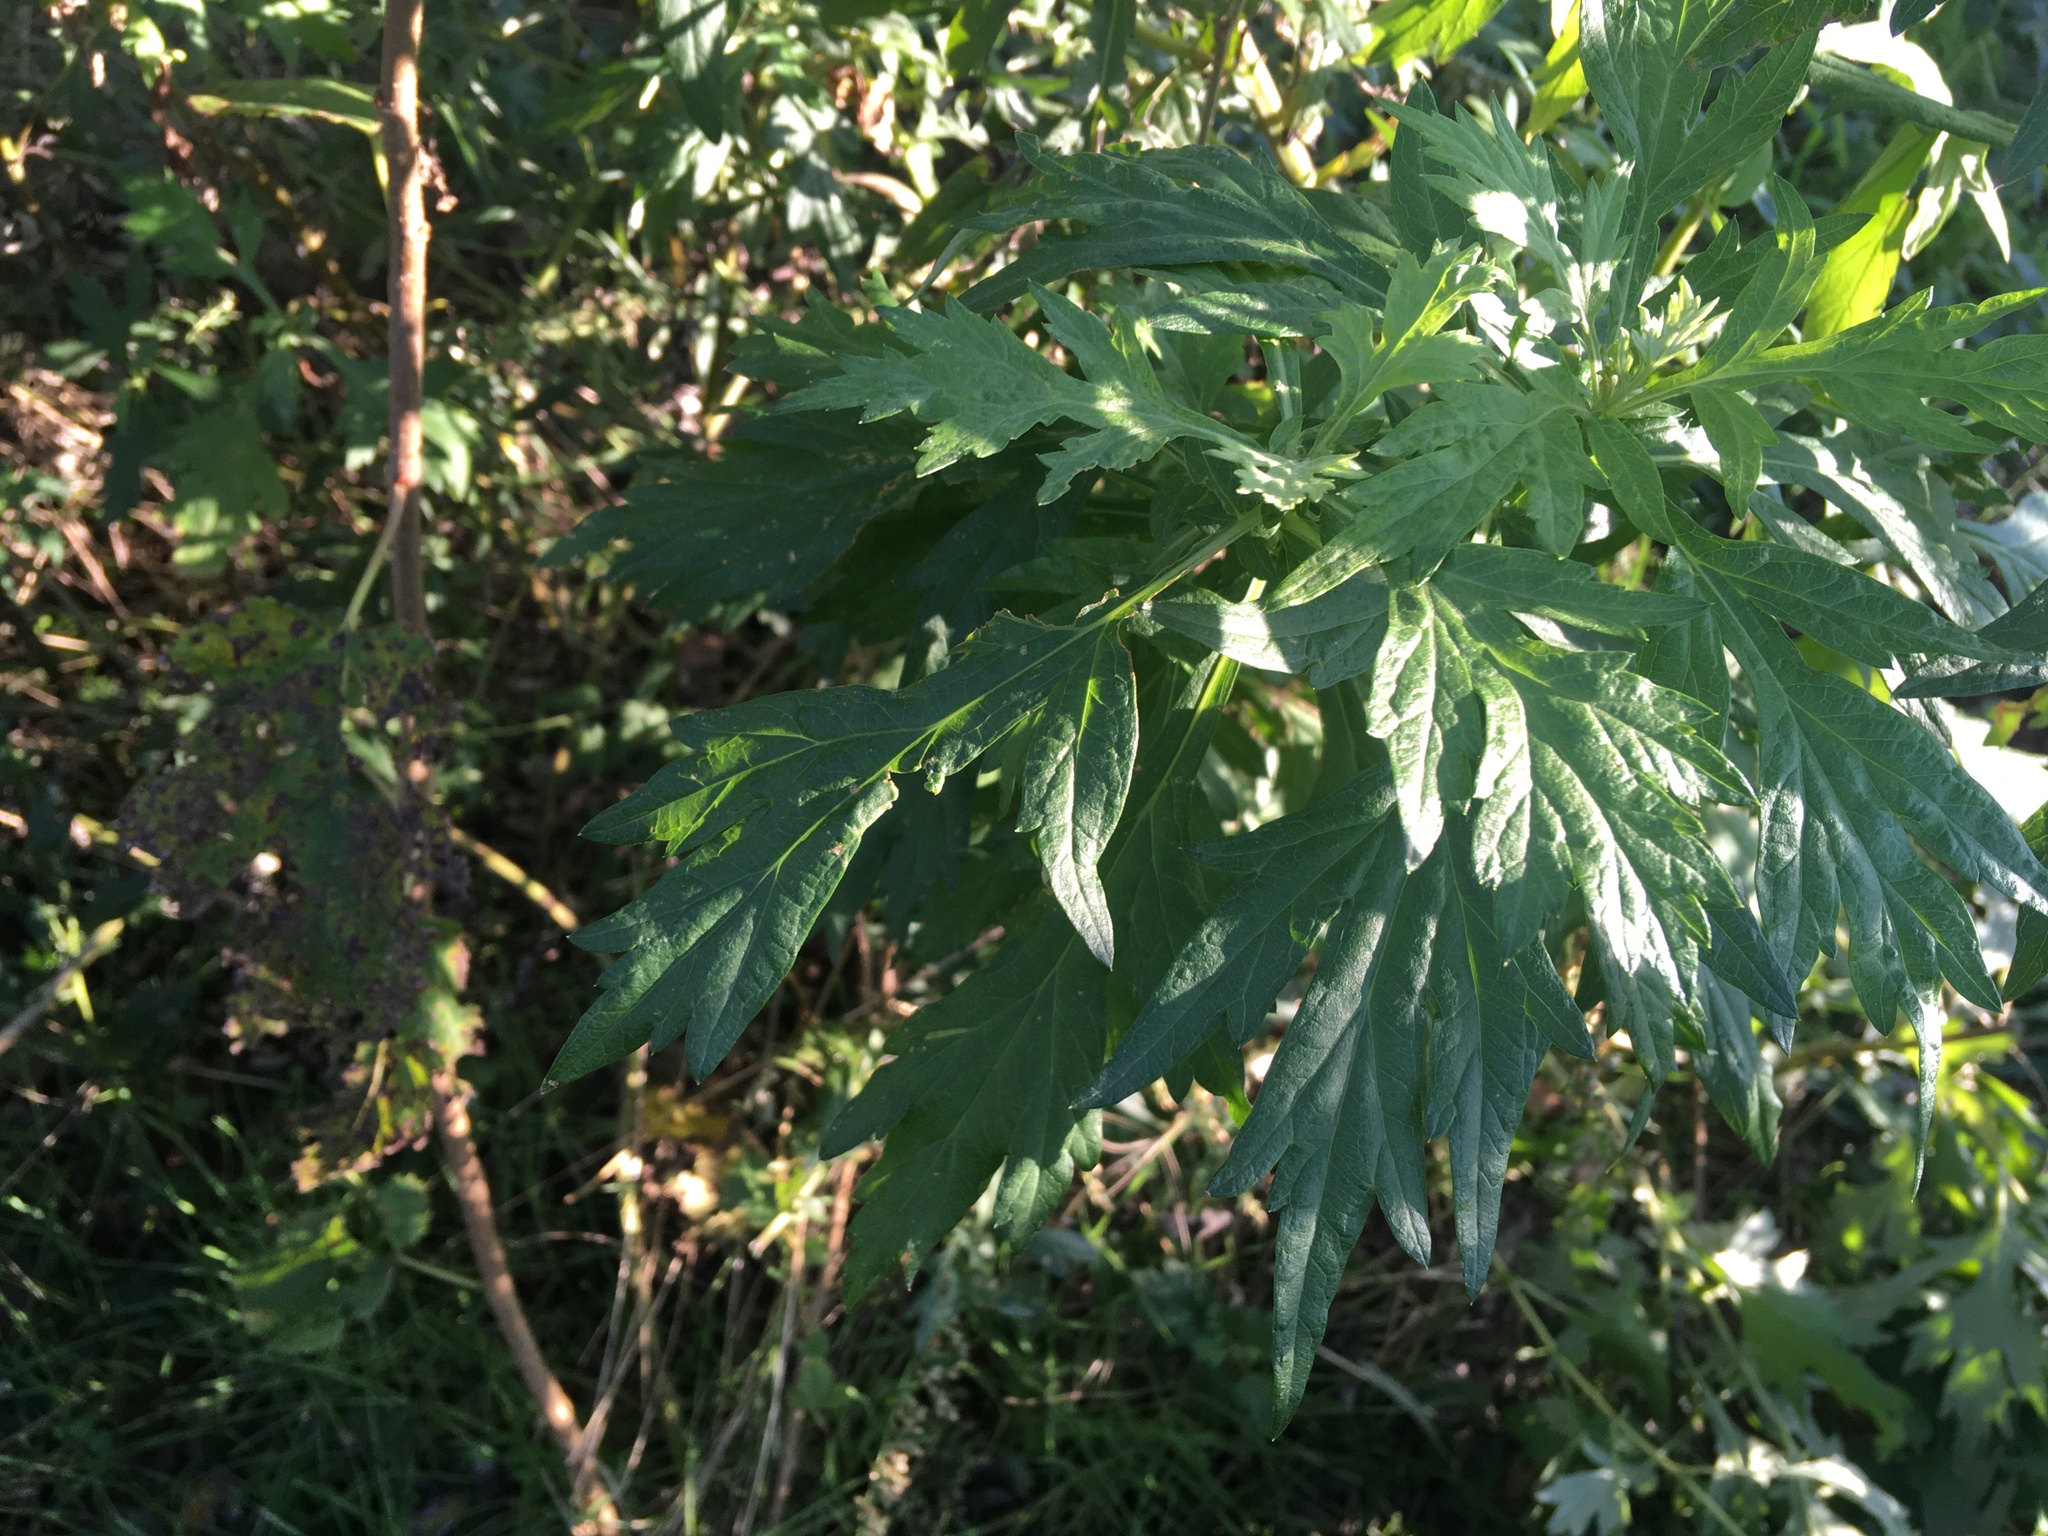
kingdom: Plantae
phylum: Tracheophyta
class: Magnoliopsida
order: Asterales
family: Asteraceae
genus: Artemisia
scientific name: Artemisia vulgaris
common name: Mugwort
